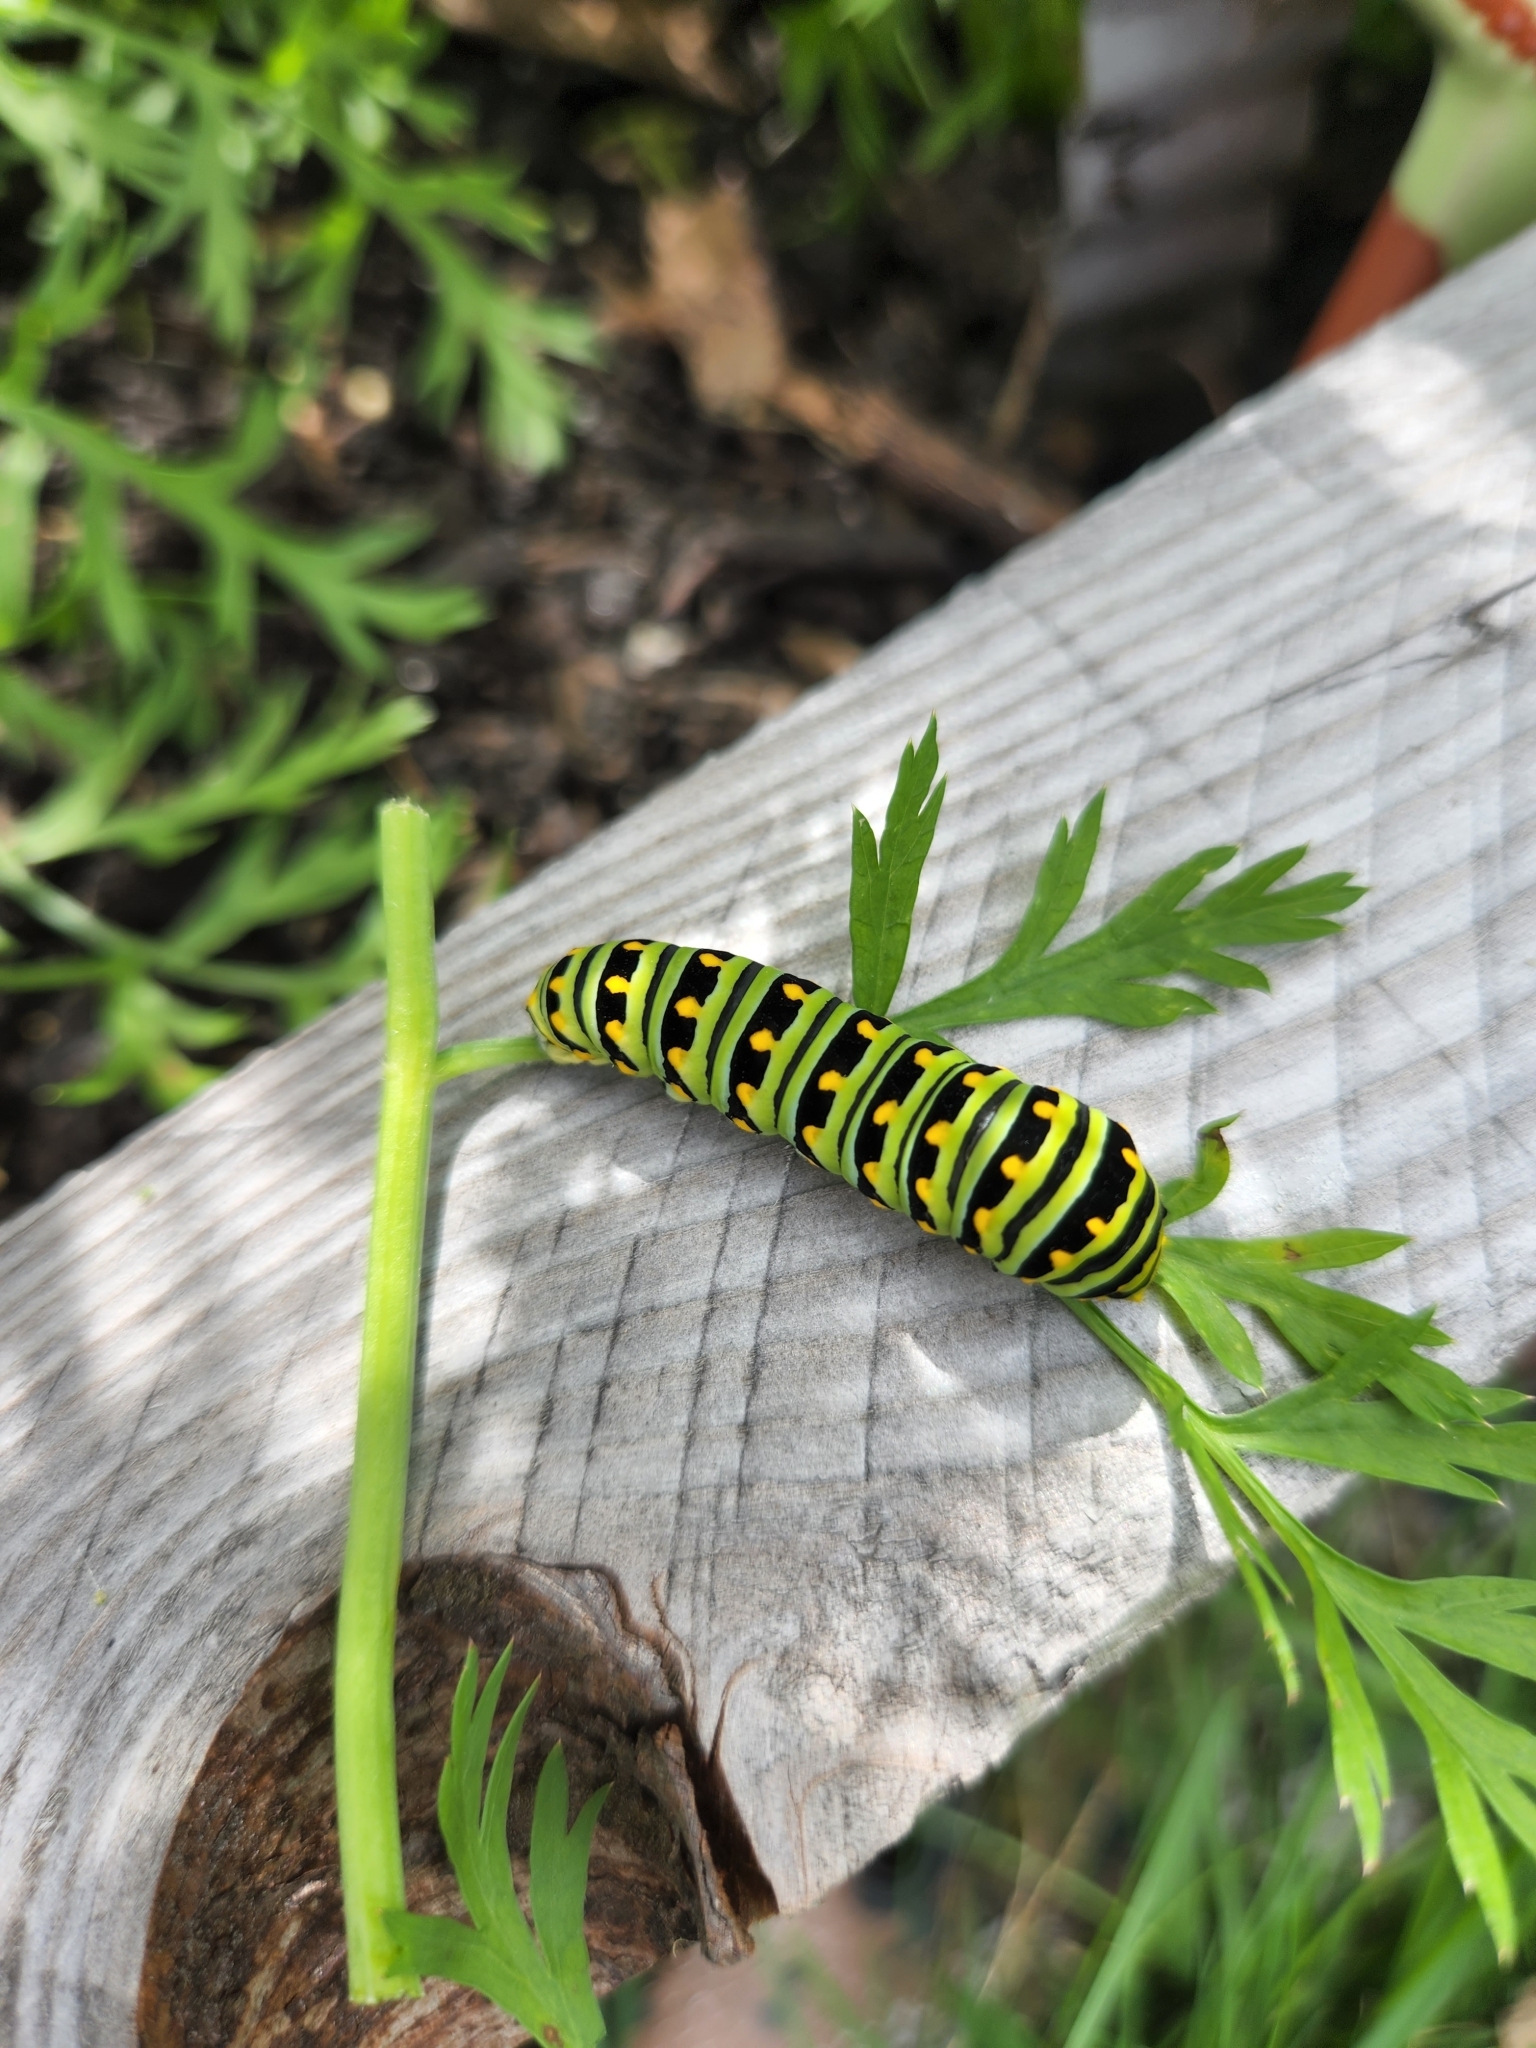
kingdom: Animalia
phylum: Arthropoda
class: Insecta
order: Lepidoptera
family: Papilionidae
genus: Papilio
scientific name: Papilio polyxenes
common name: Black swallowtail
